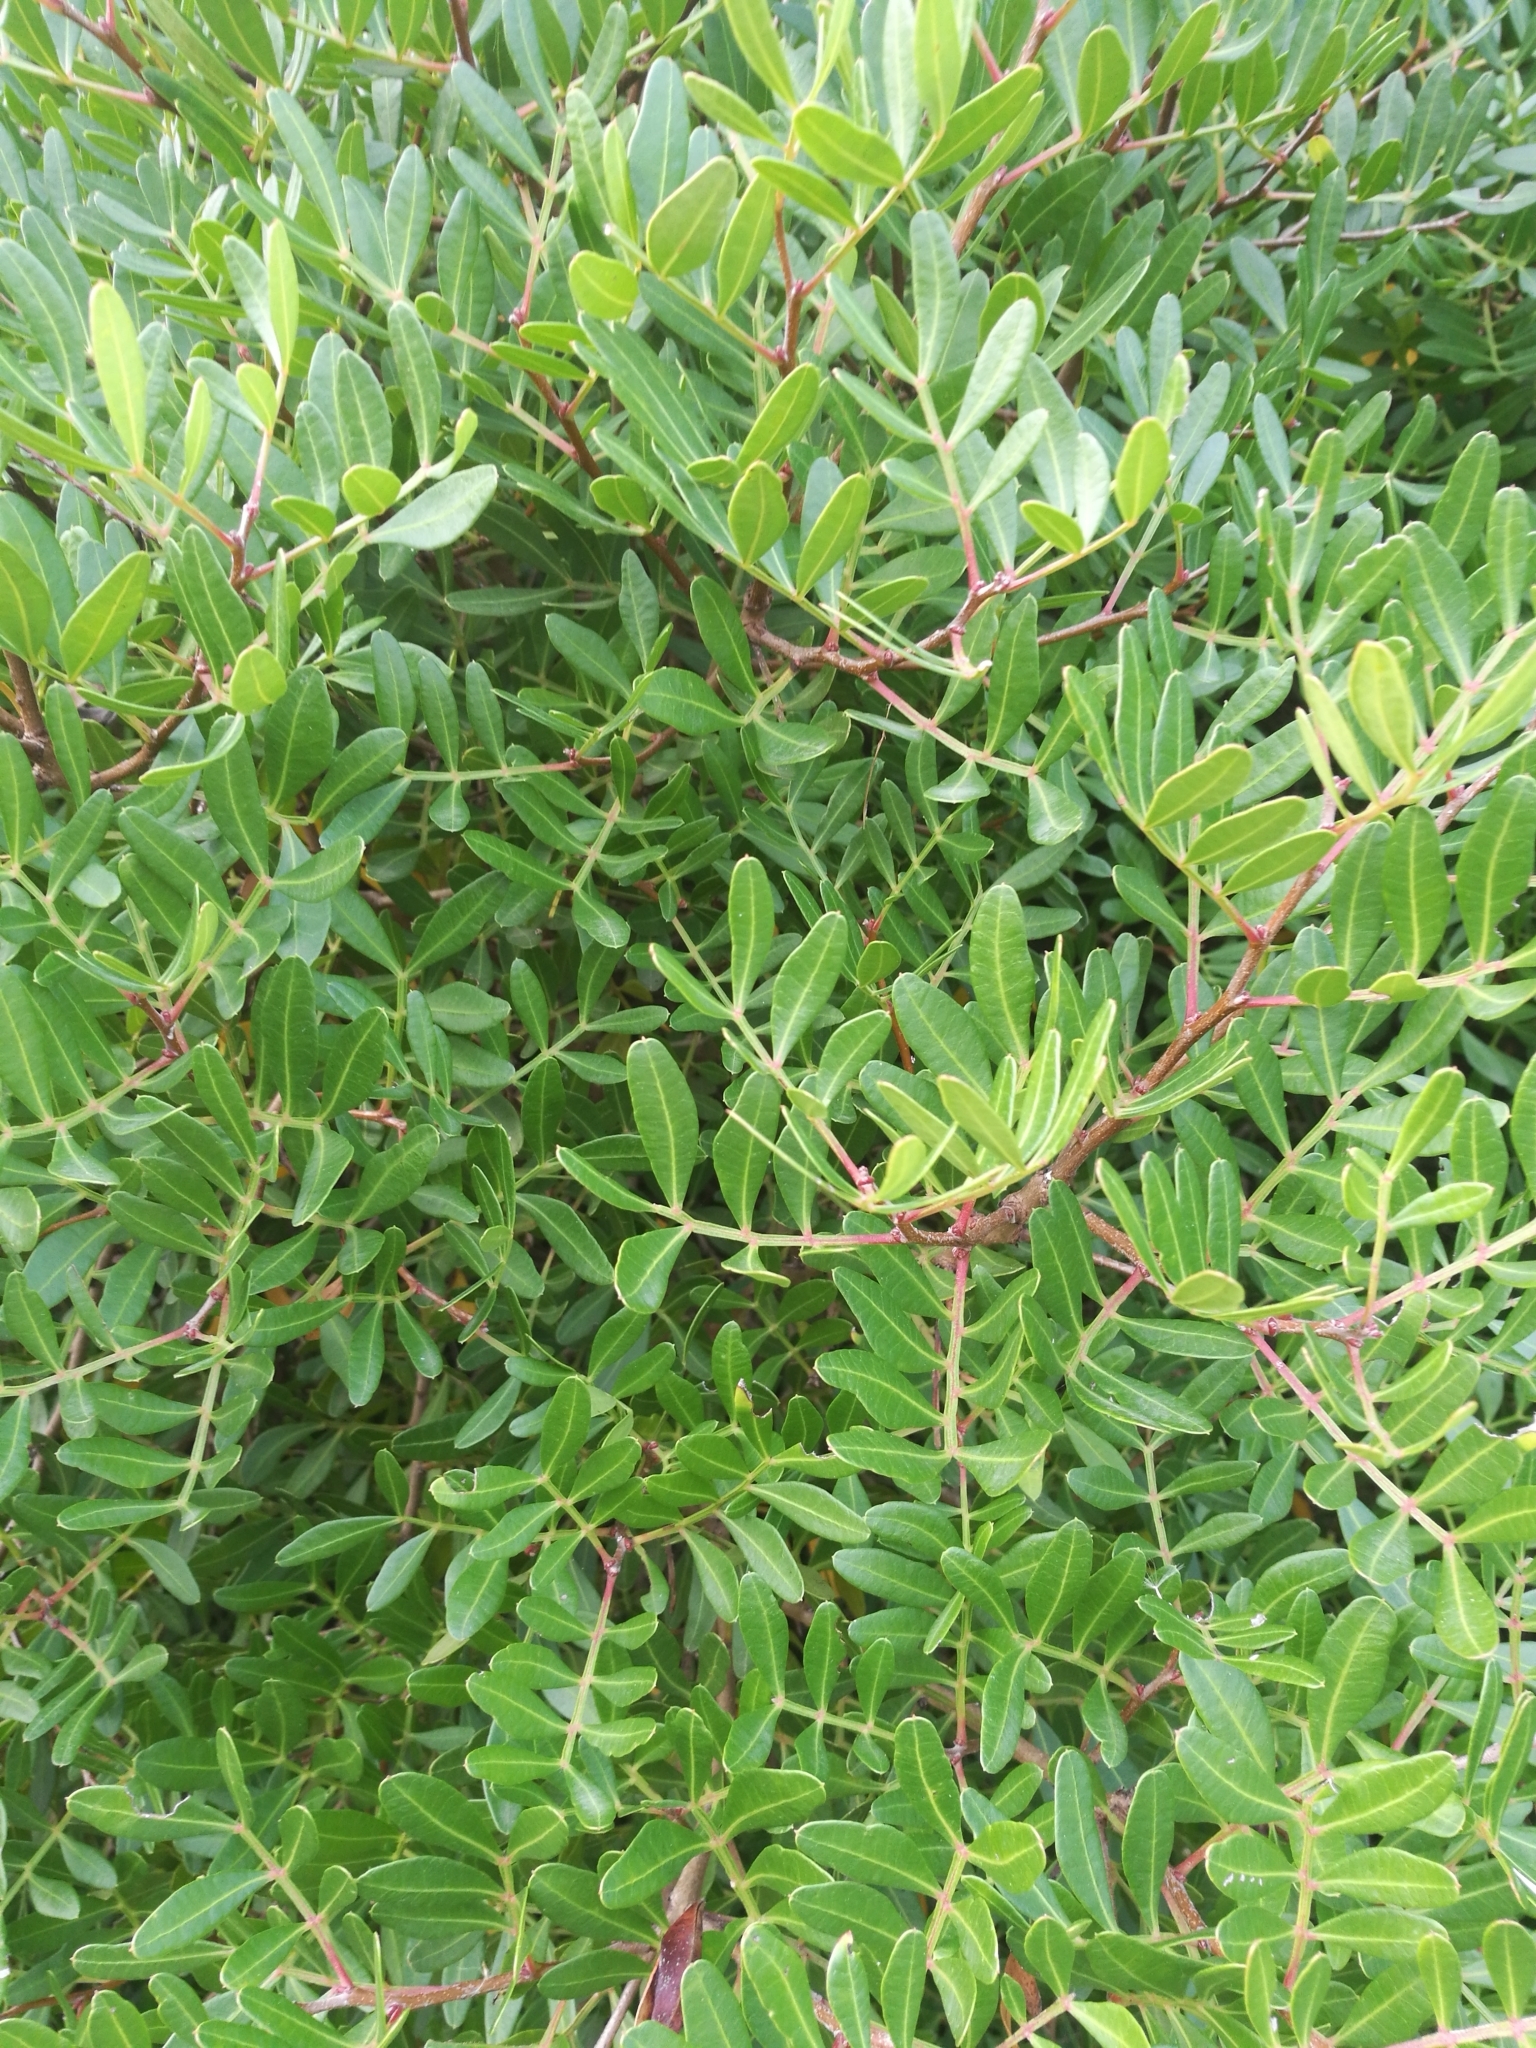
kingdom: Plantae
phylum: Tracheophyta
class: Magnoliopsida
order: Sapindales
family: Anacardiaceae
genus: Pistacia
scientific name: Pistacia lentiscus
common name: Lentisk
